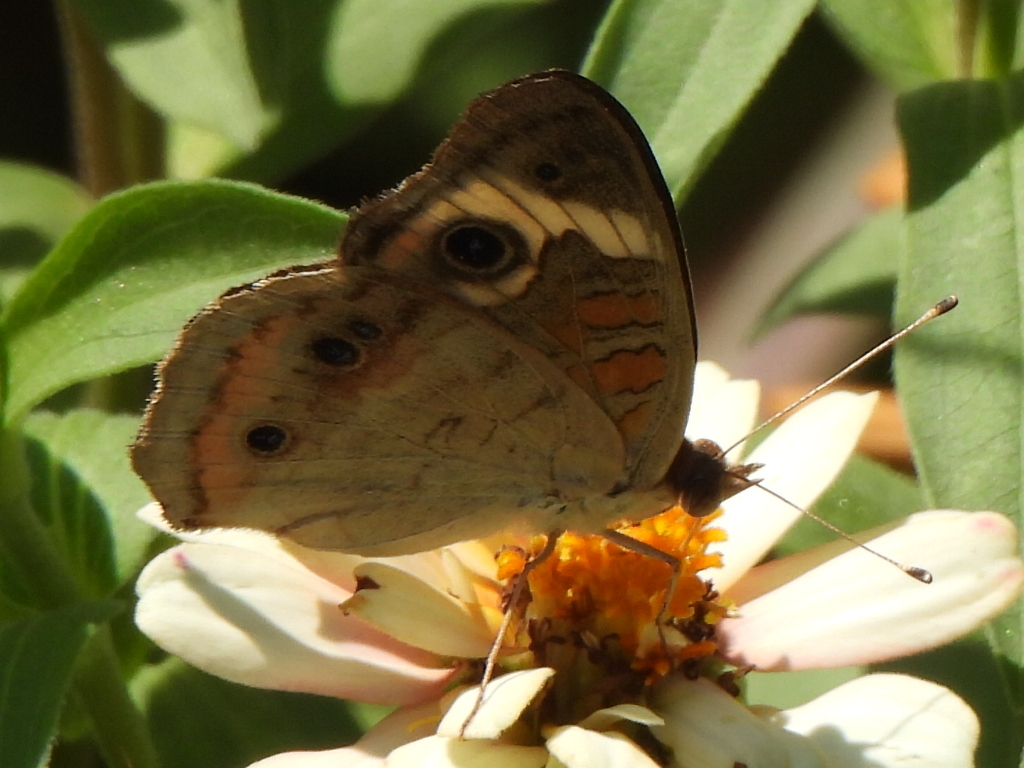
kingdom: Animalia
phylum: Arthropoda
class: Insecta
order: Lepidoptera
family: Nymphalidae
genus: Junonia
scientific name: Junonia coenia
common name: Common buckeye
